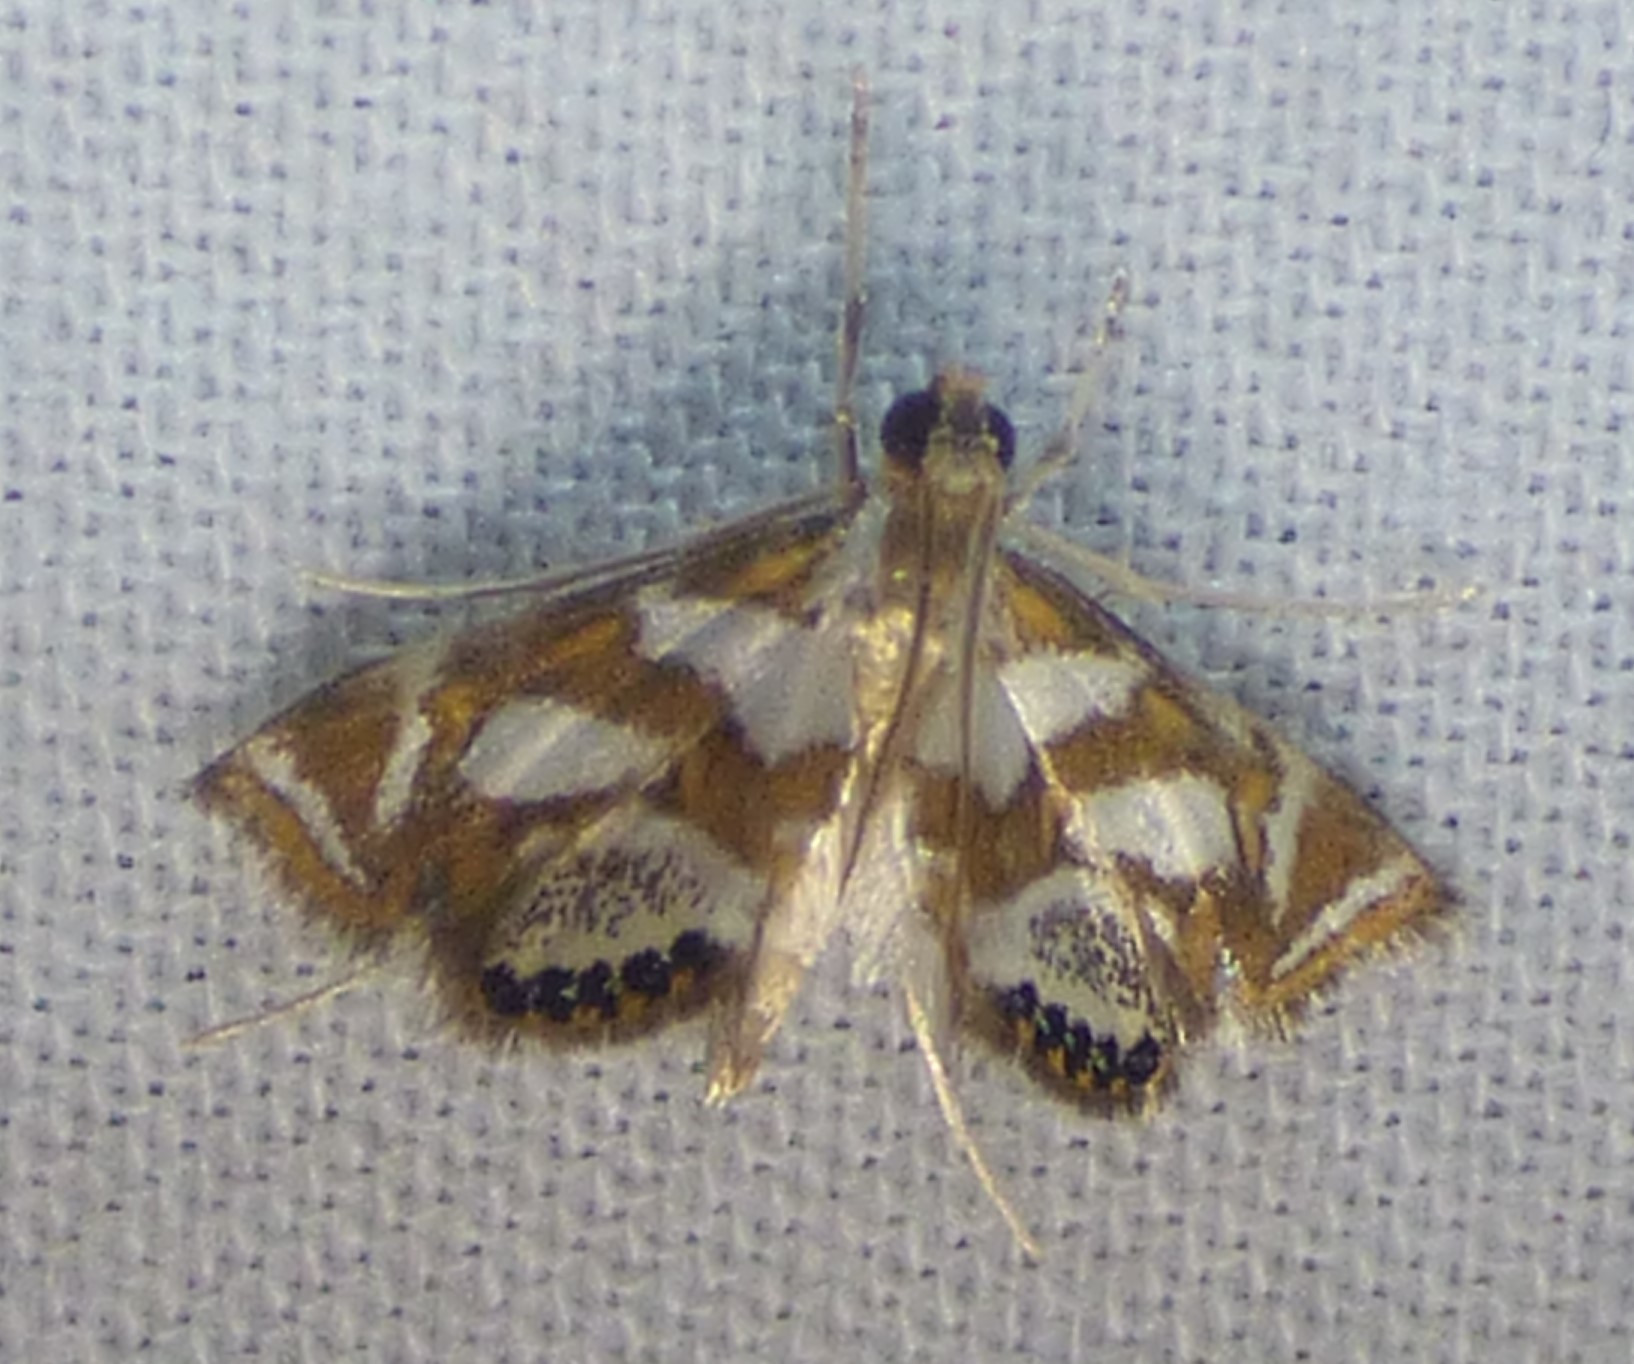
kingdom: Animalia
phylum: Arthropoda
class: Insecta
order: Lepidoptera
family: Crambidae
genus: Chrysendeton
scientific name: Chrysendeton medicinalis
